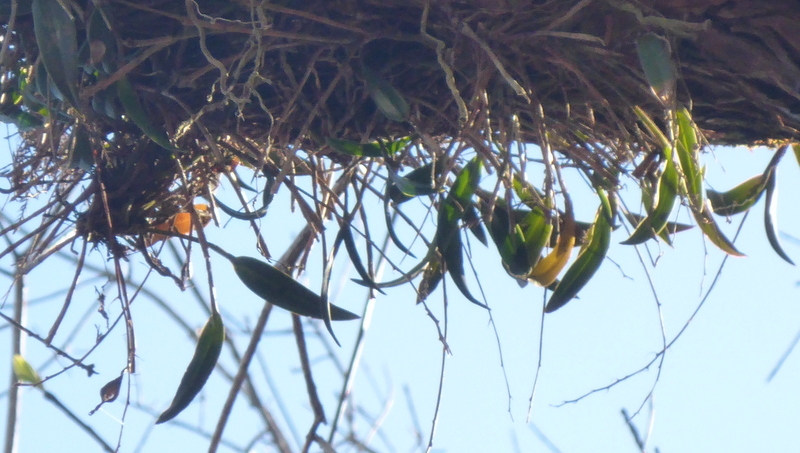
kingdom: Plantae
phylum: Tracheophyta
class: Liliopsida
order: Asparagales
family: Orchidaceae
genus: Epidendrum
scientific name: Epidendrum conopseum
